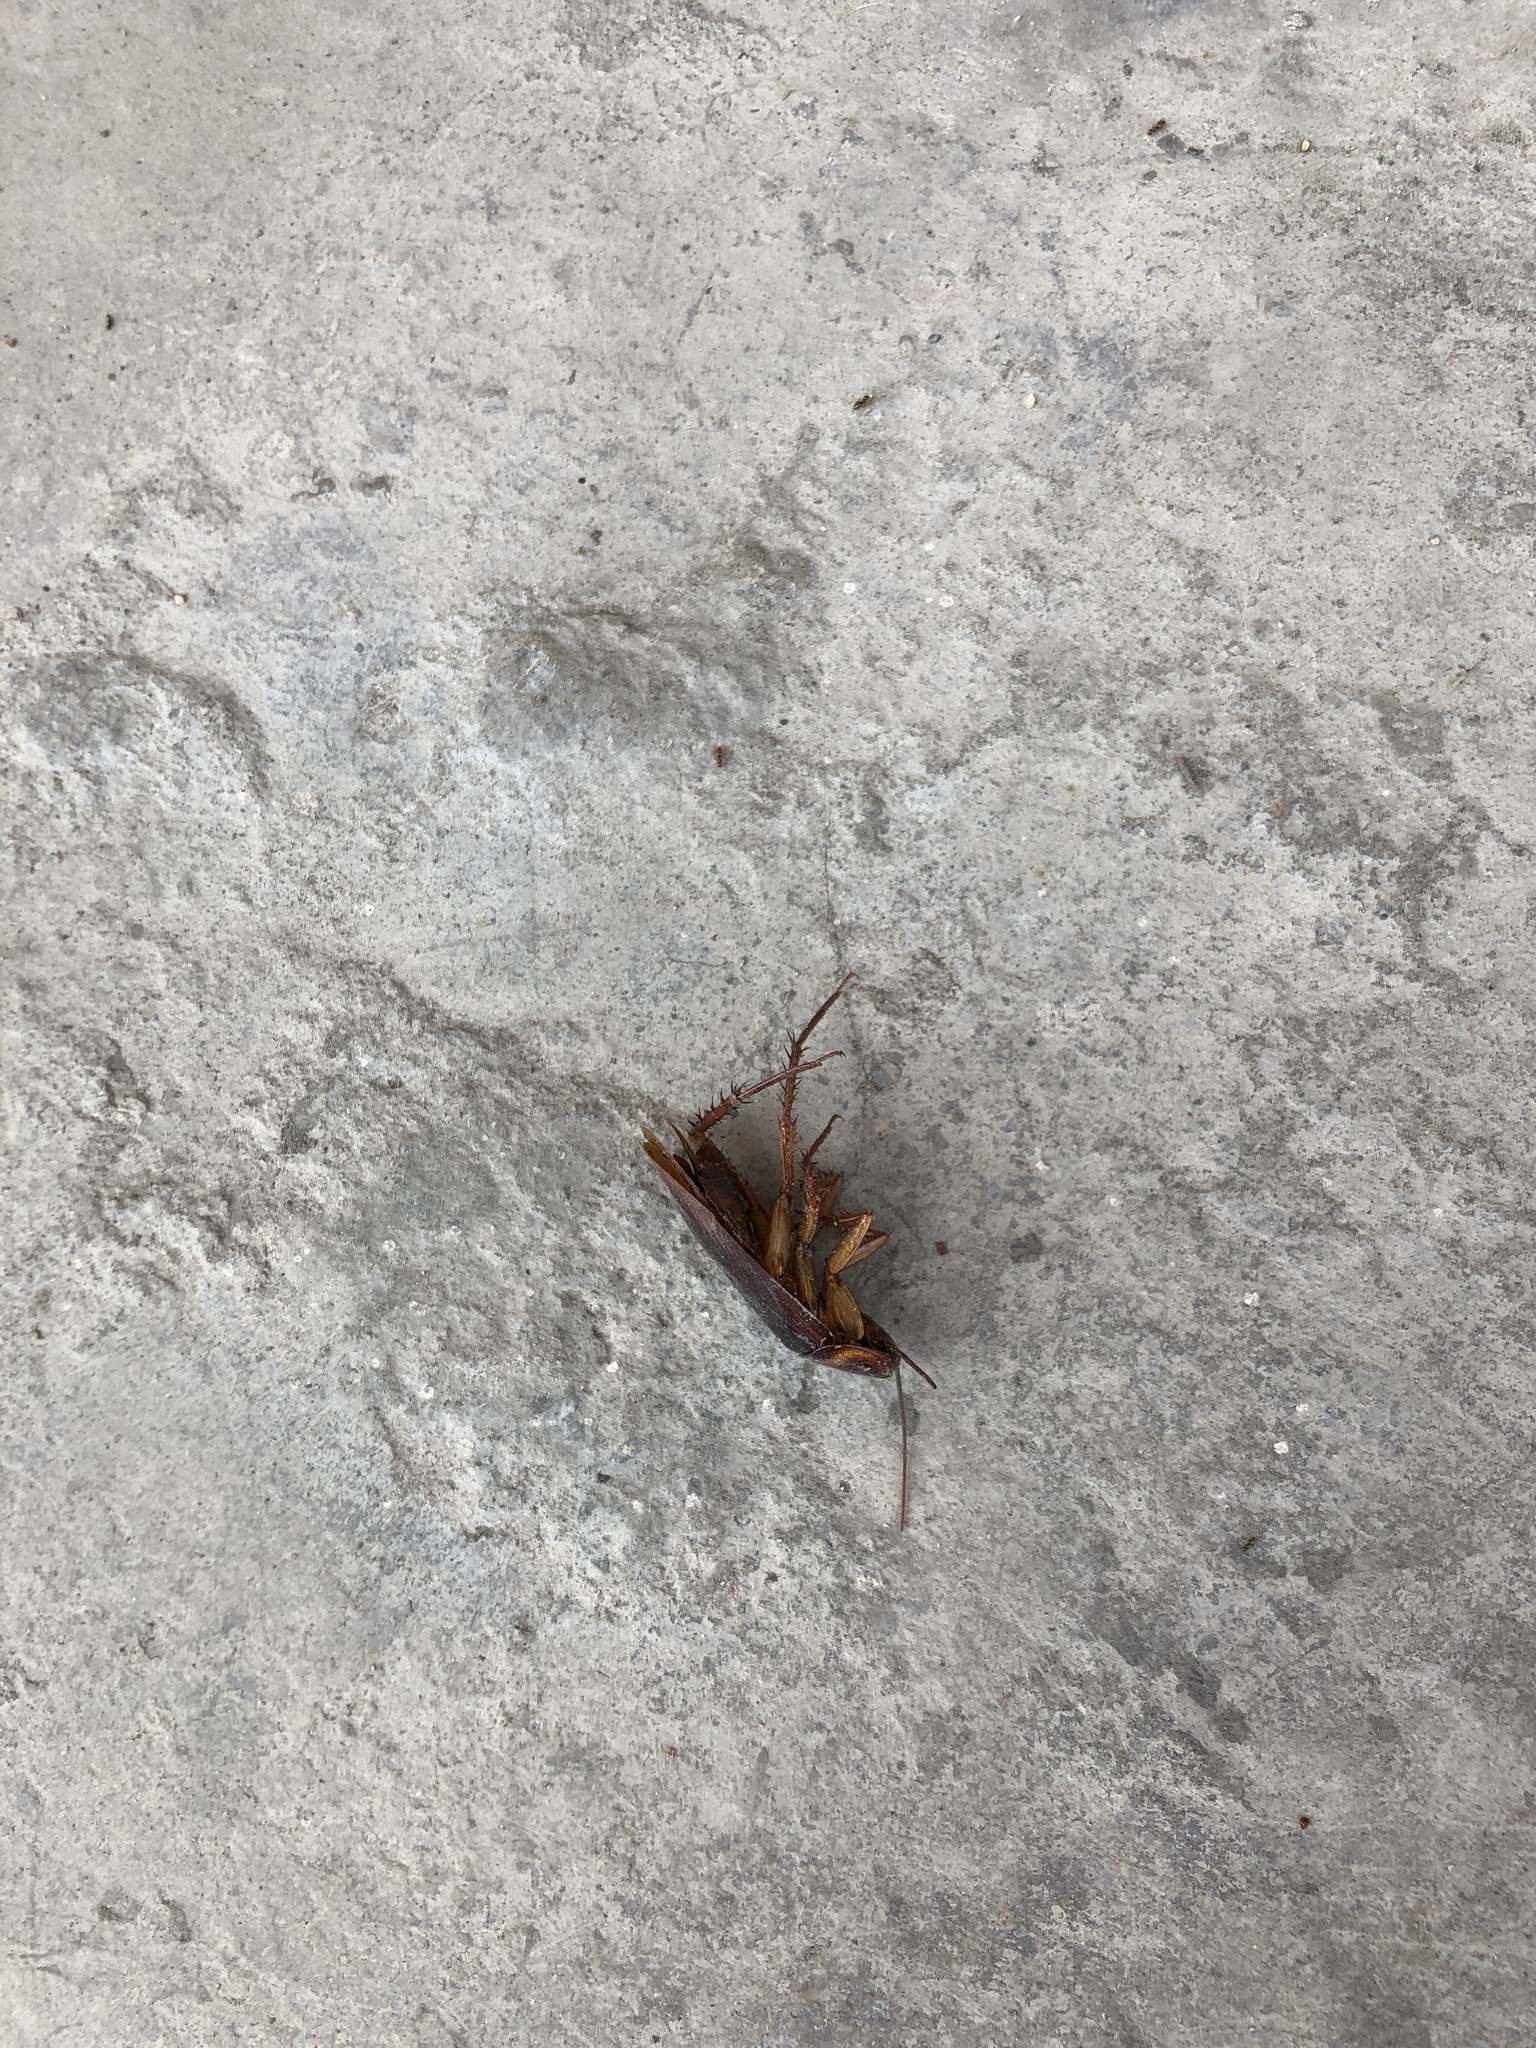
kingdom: Animalia
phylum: Arthropoda
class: Insecta
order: Blattodea
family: Blattidae
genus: Periplaneta
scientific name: Periplaneta americana
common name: American cockroach
